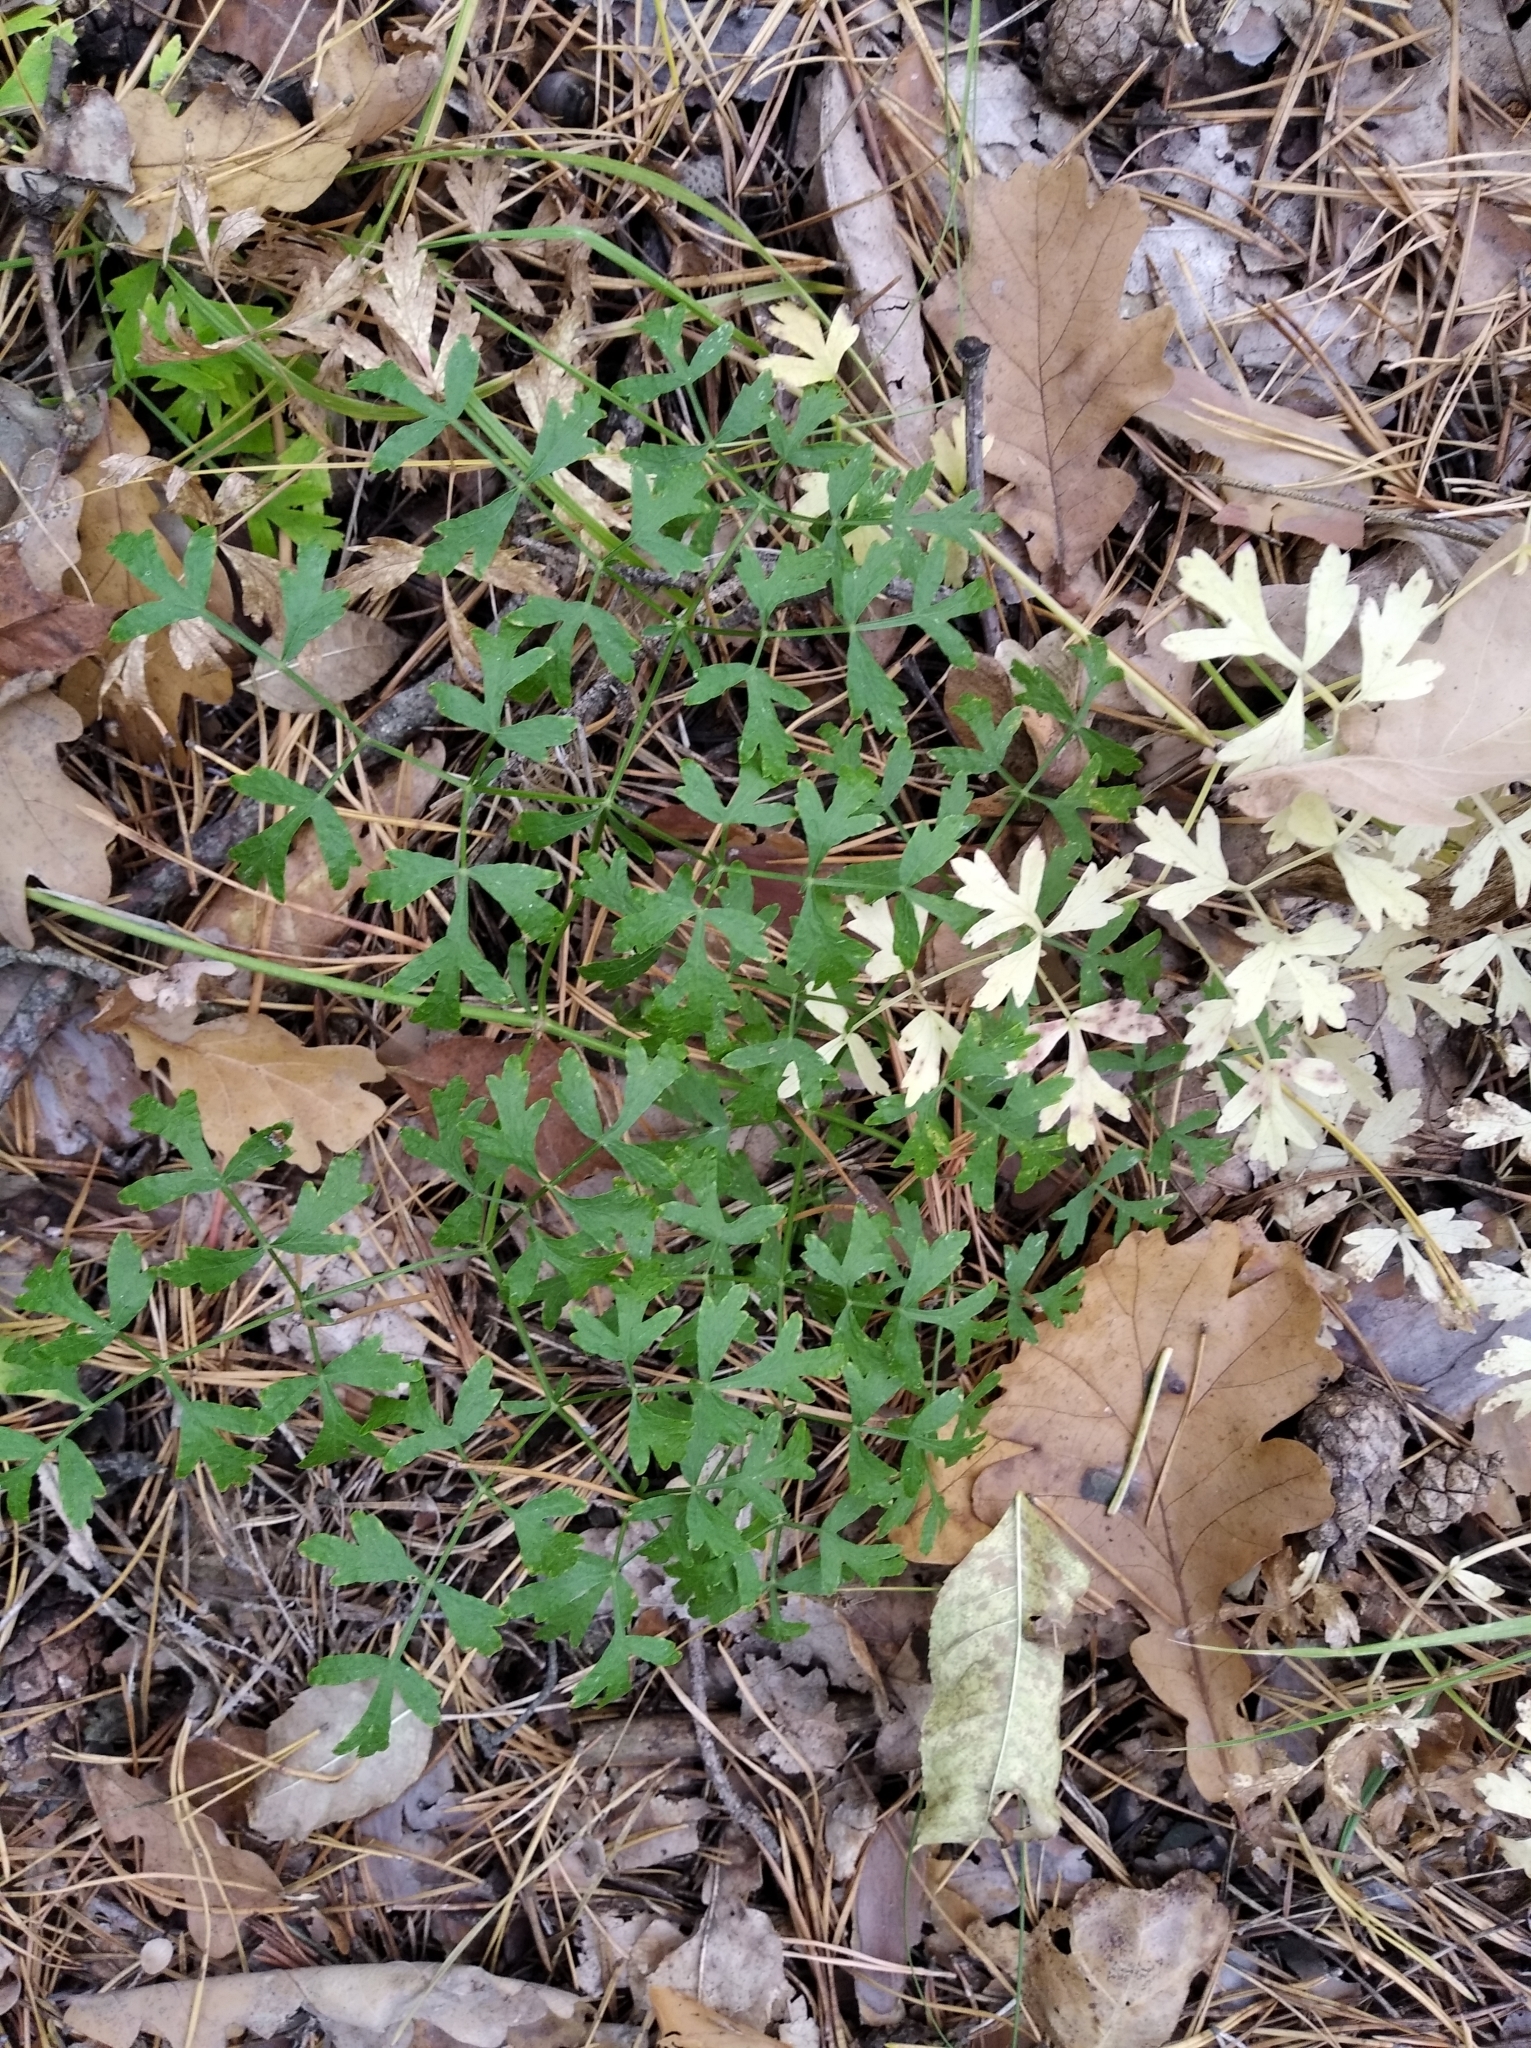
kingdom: Plantae
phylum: Tracheophyta
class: Magnoliopsida
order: Apiales
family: Apiaceae
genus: Oreoselinum
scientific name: Oreoselinum nigrum
